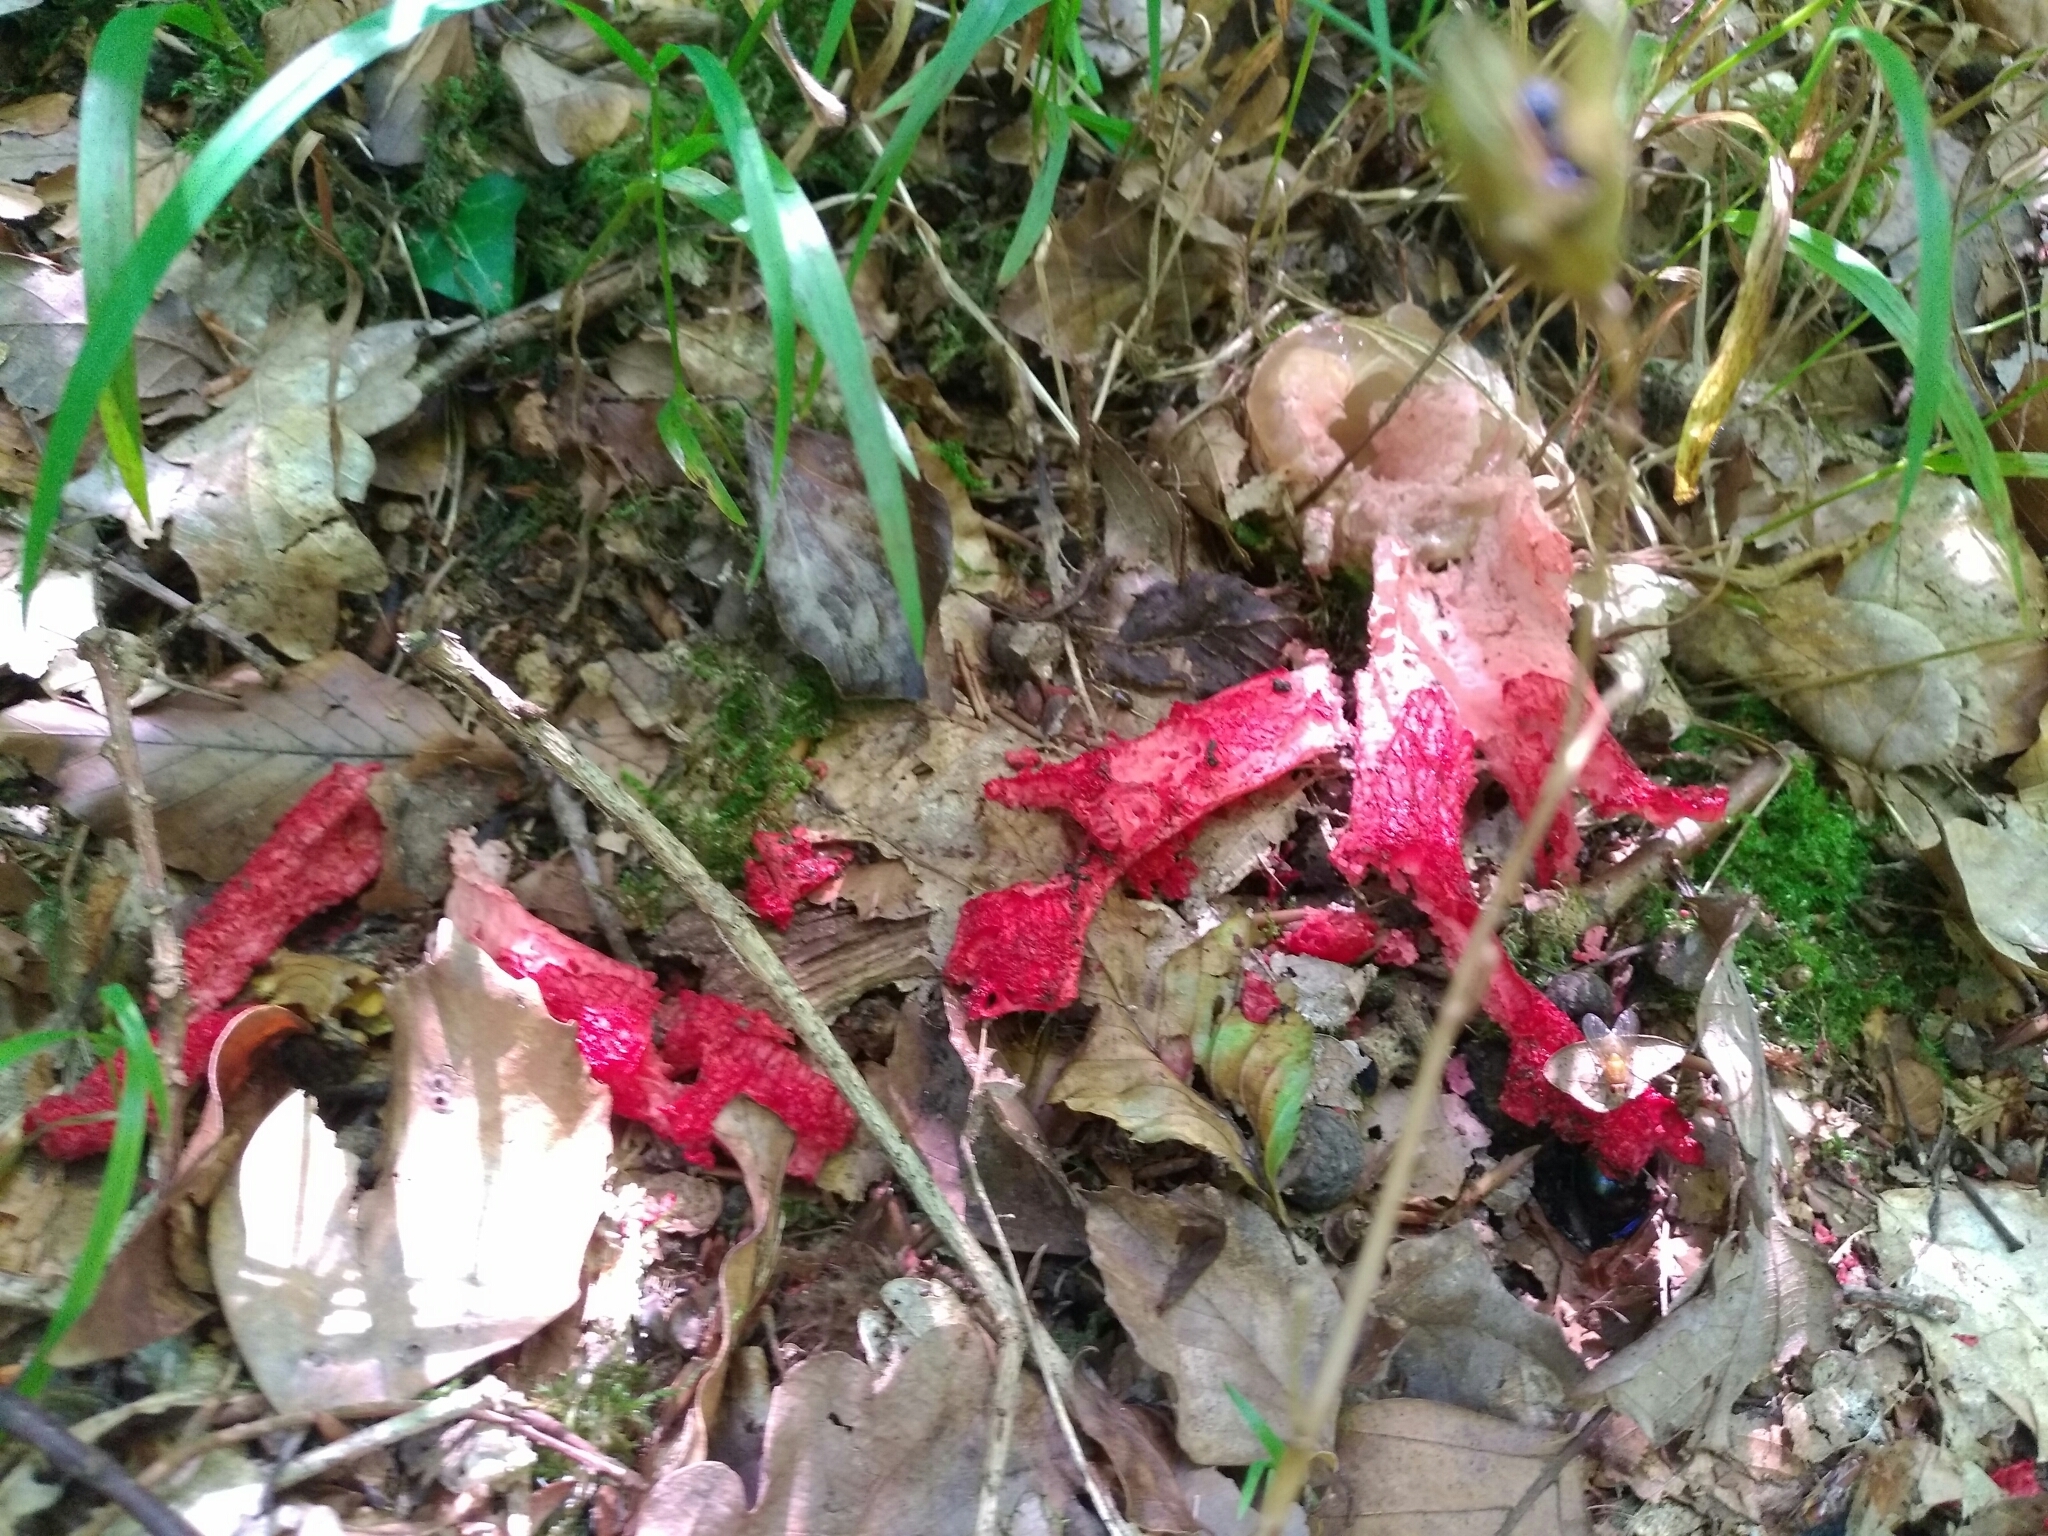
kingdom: Fungi
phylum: Basidiomycota
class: Agaricomycetes
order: Phallales
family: Phallaceae
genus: Clathrus
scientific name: Clathrus archeri
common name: Devil's fingers
